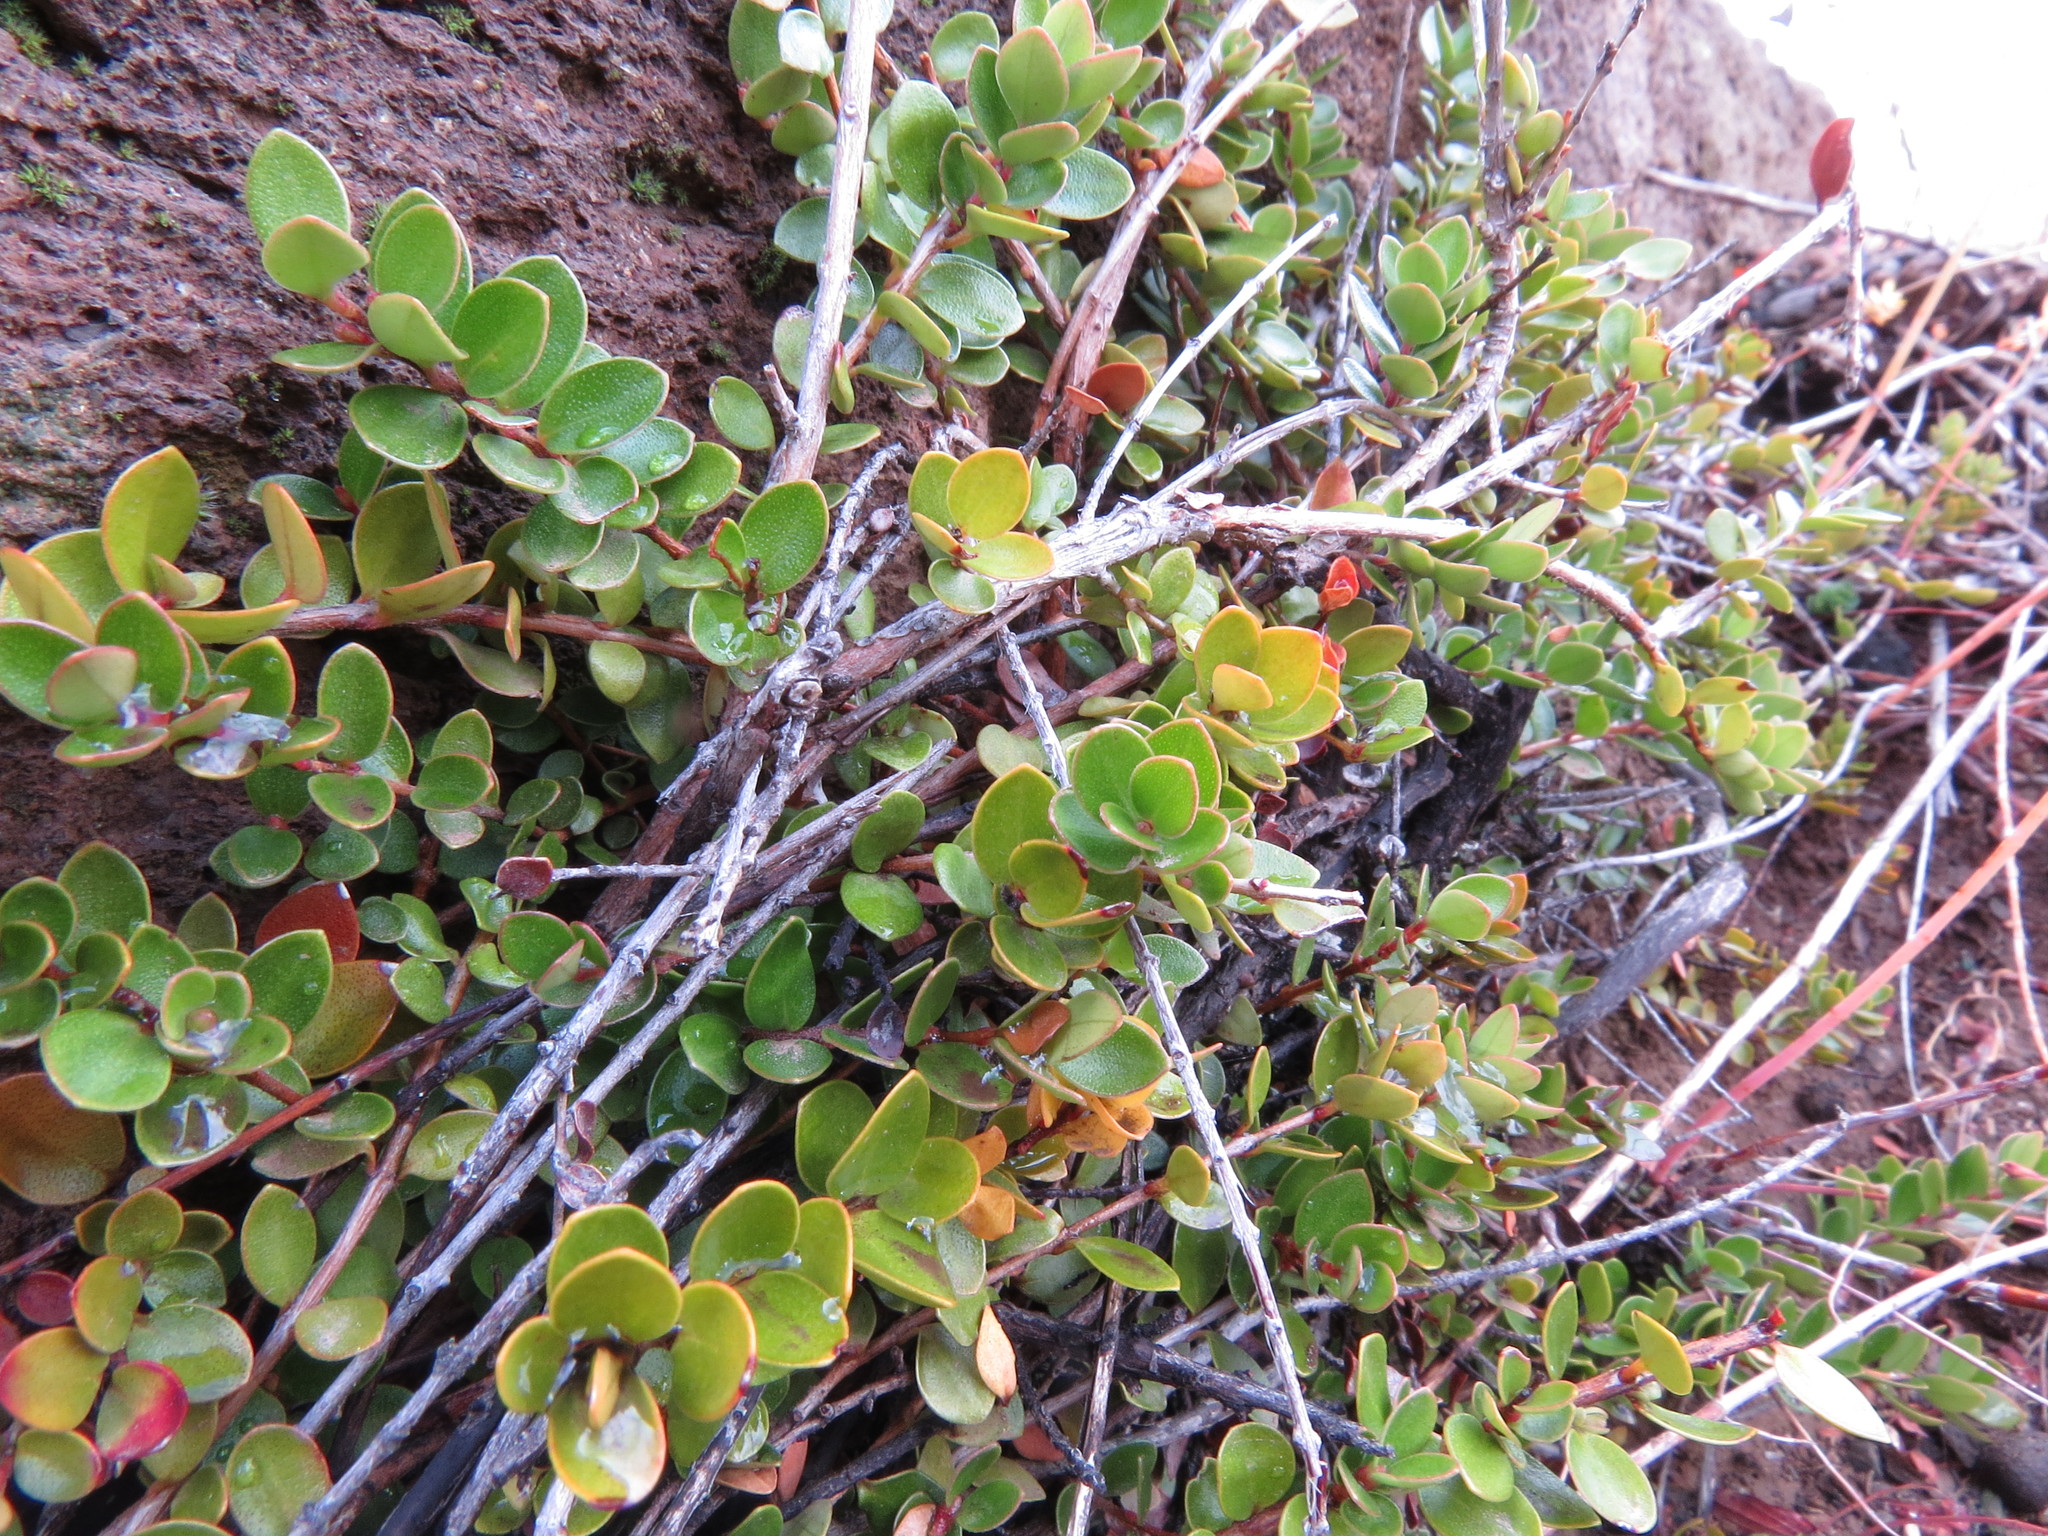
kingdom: Plantae
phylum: Tracheophyta
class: Magnoliopsida
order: Myrtales
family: Myrtaceae
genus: Myrteola
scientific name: Myrteola nummularia
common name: Cranberry-myrtle
